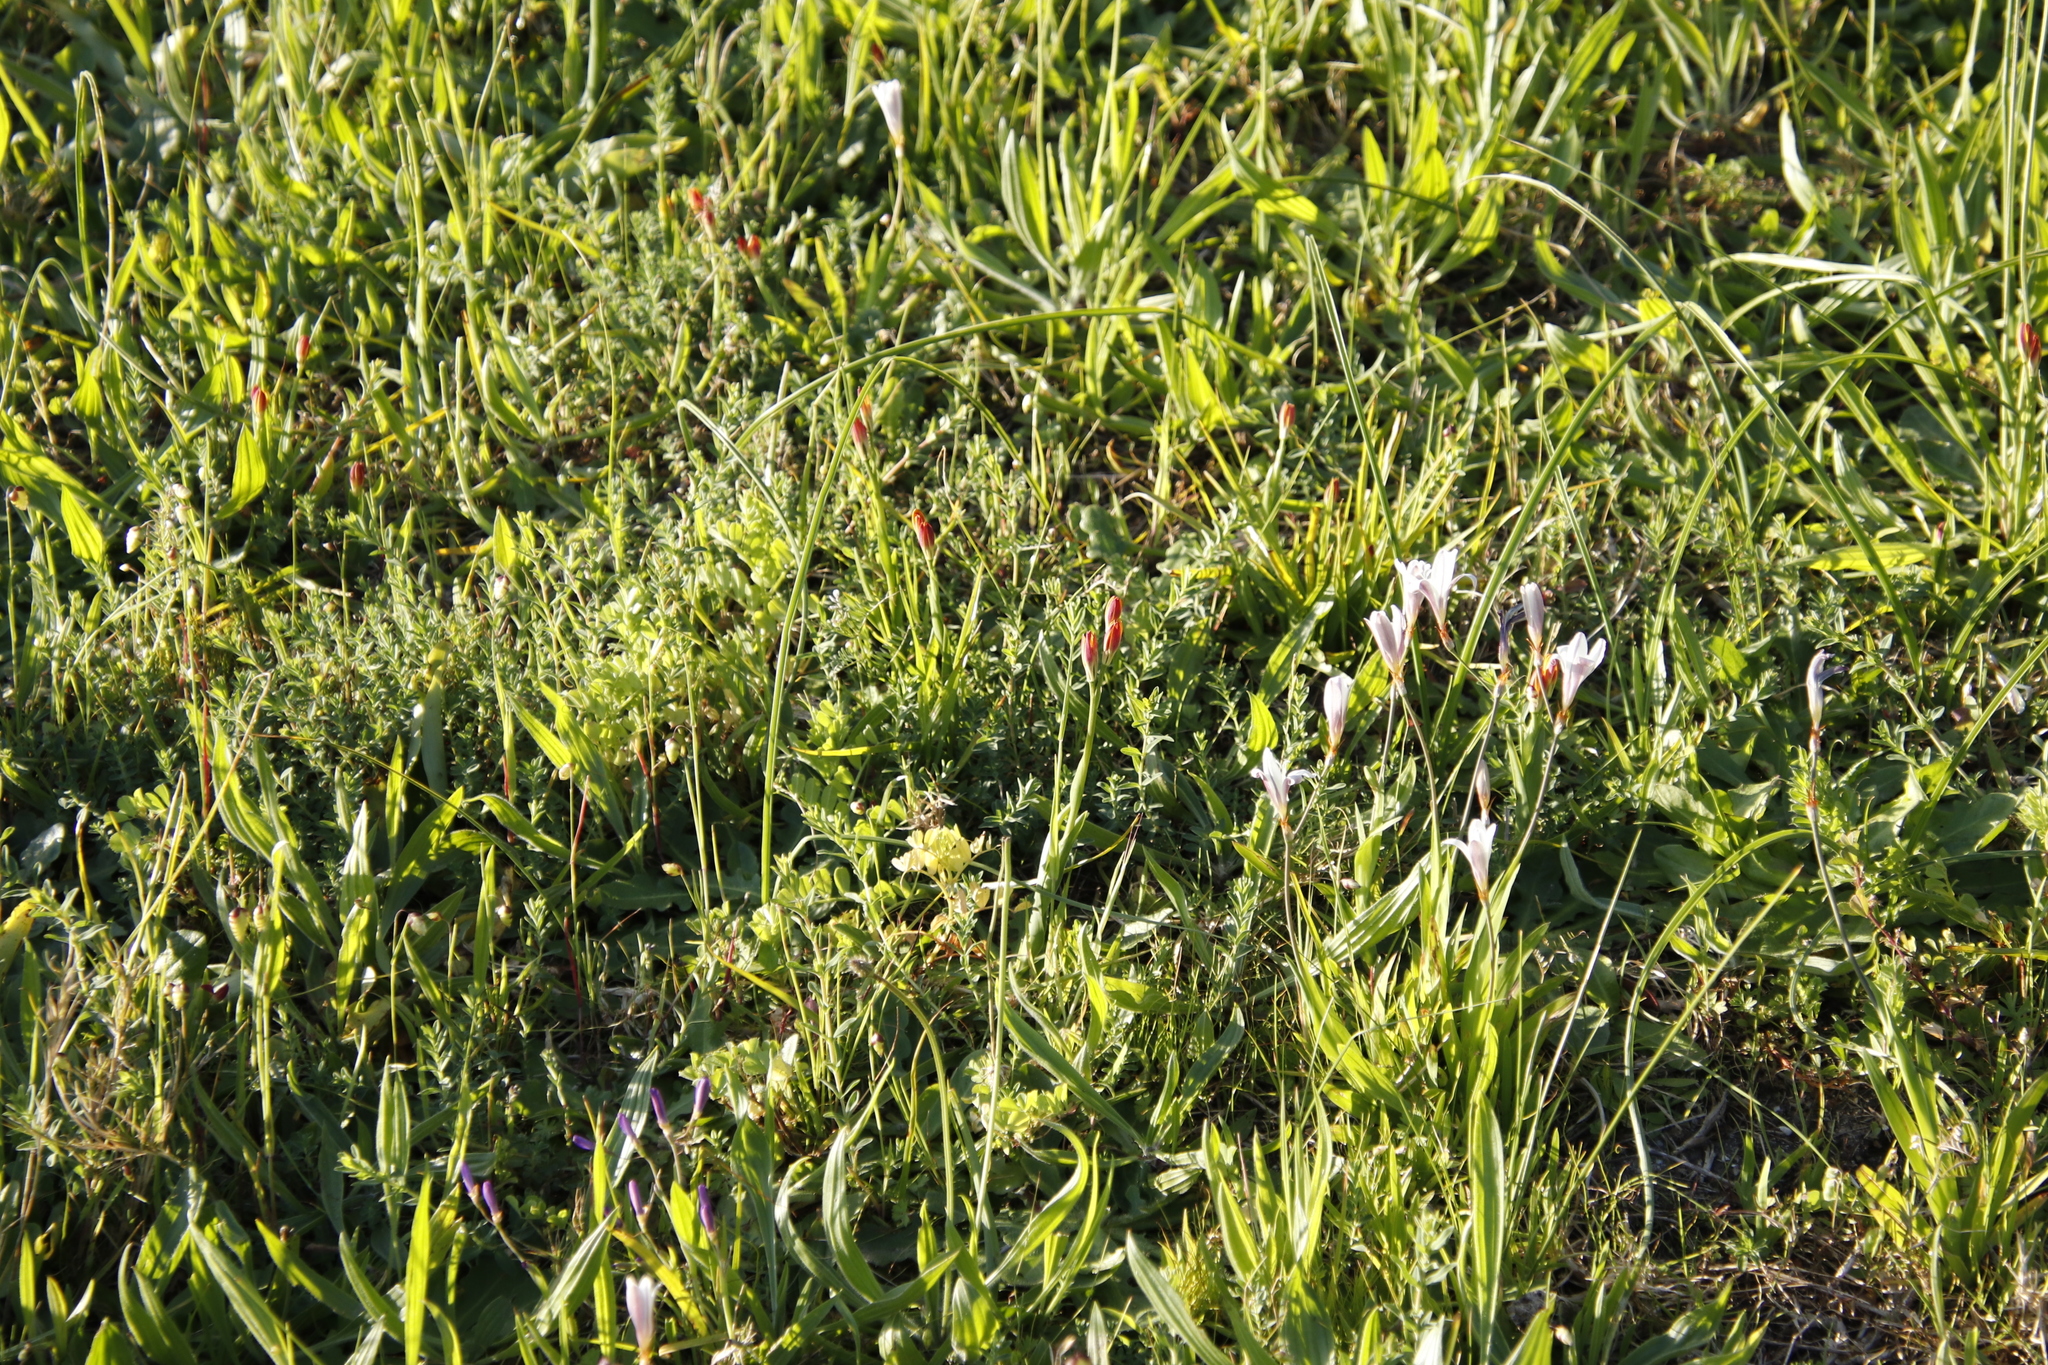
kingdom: Plantae
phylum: Tracheophyta
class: Liliopsida
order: Liliales
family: Colchicaceae
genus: Baeometra
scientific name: Baeometra uniflora
